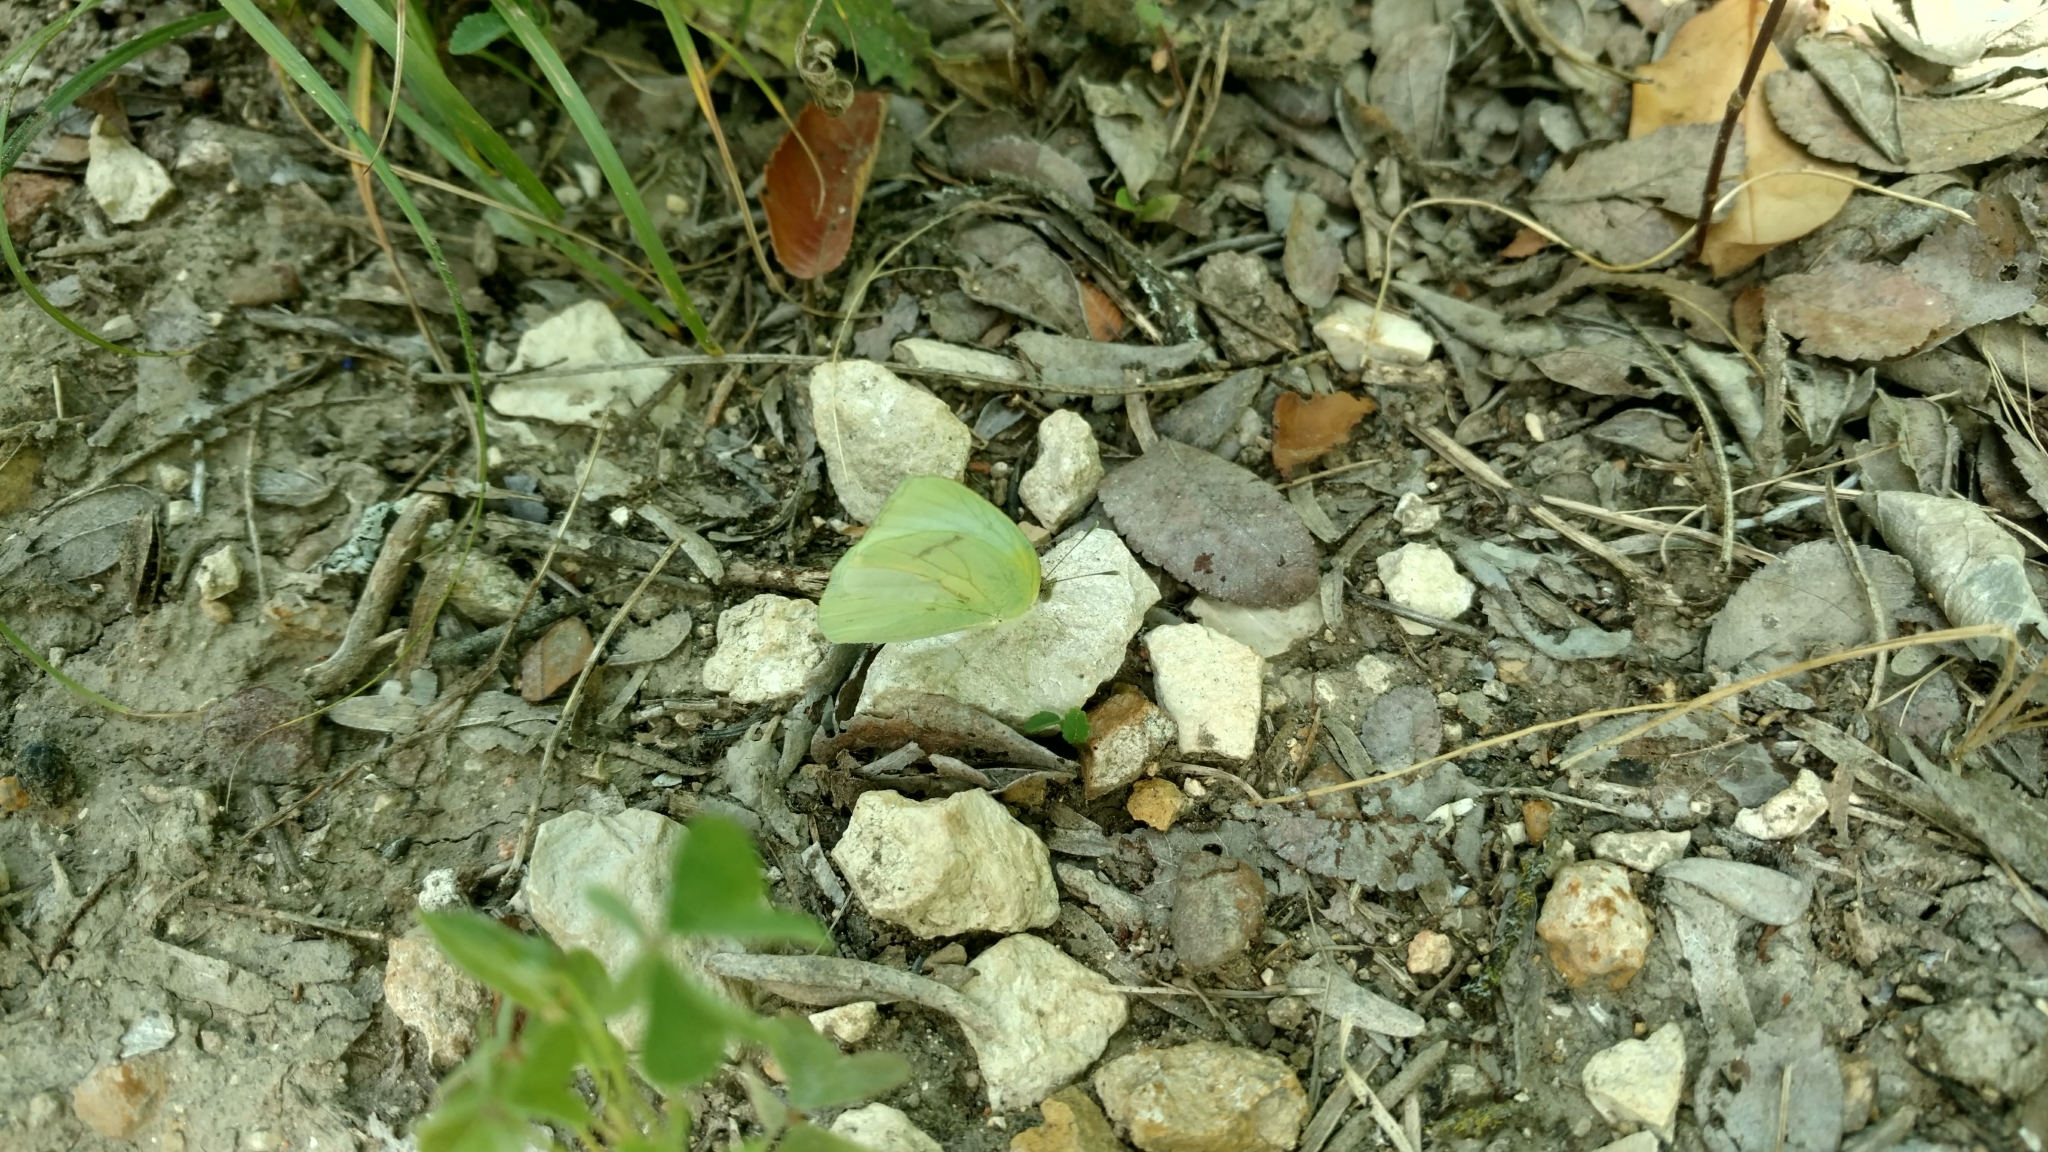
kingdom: Animalia
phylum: Arthropoda
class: Insecta
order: Lepidoptera
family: Pieridae
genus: Kricogonia
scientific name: Kricogonia lyside
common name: Guayacan sulphur,
